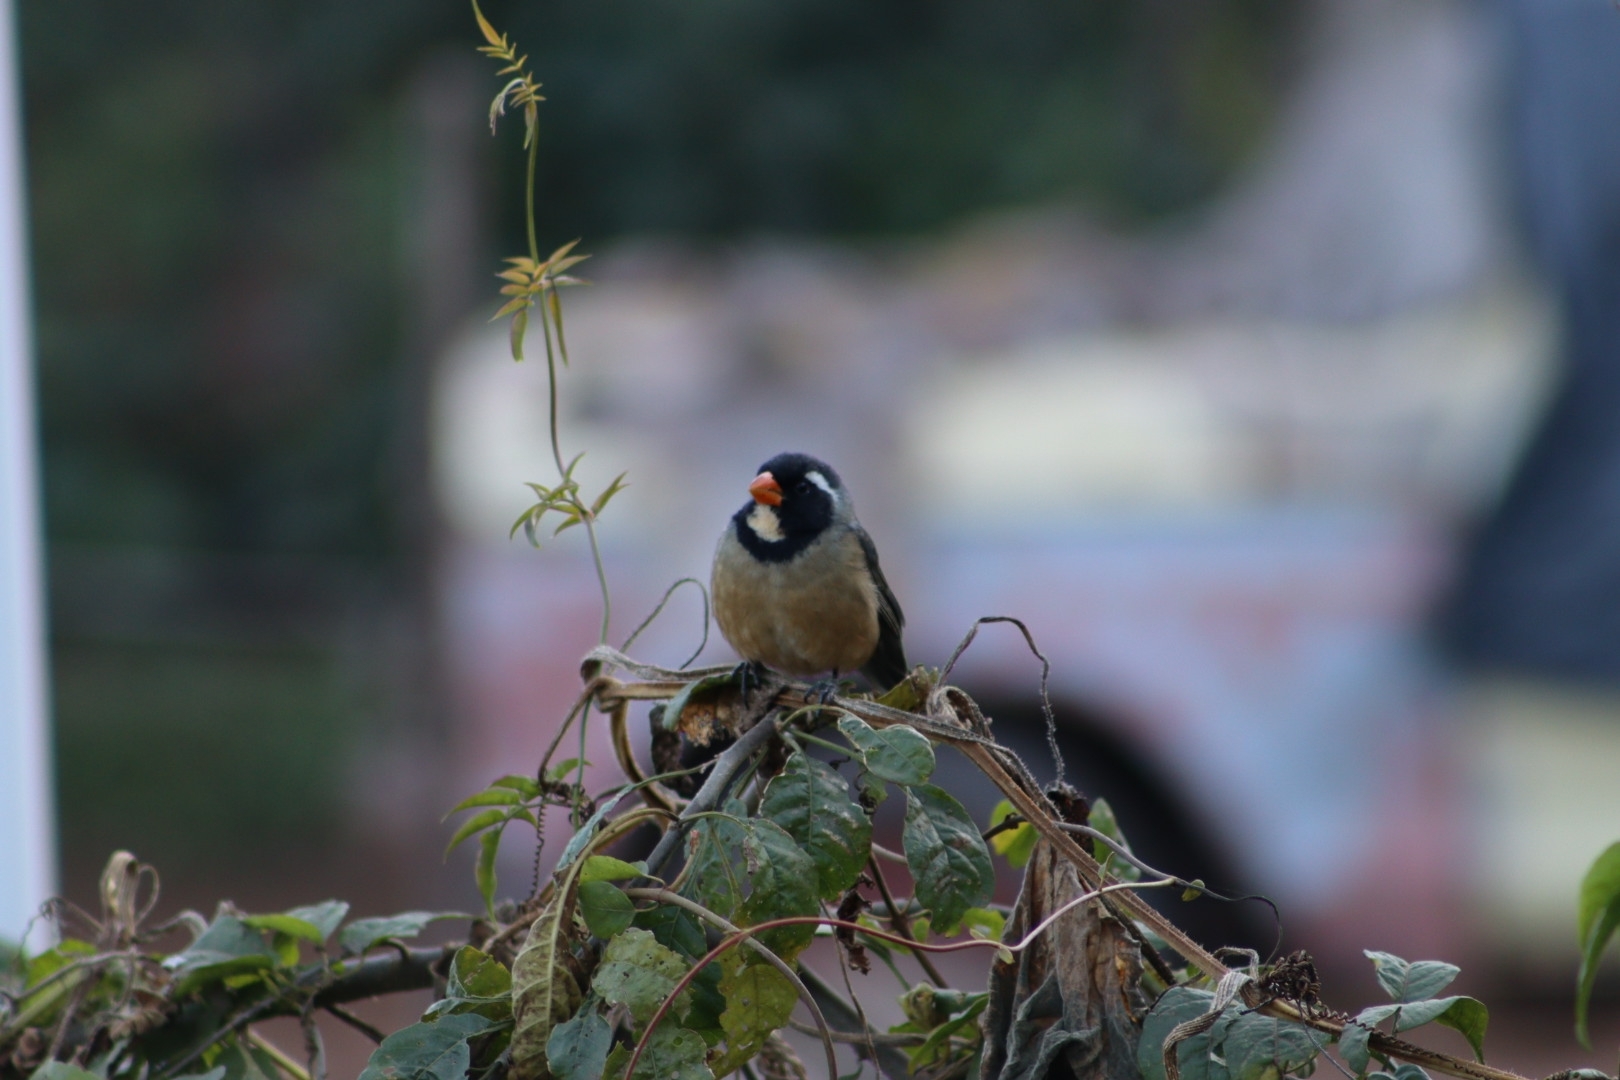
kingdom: Animalia
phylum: Chordata
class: Aves
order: Passeriformes
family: Thraupidae
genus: Saltator
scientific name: Saltator aurantiirostris
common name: Golden-billed saltator
